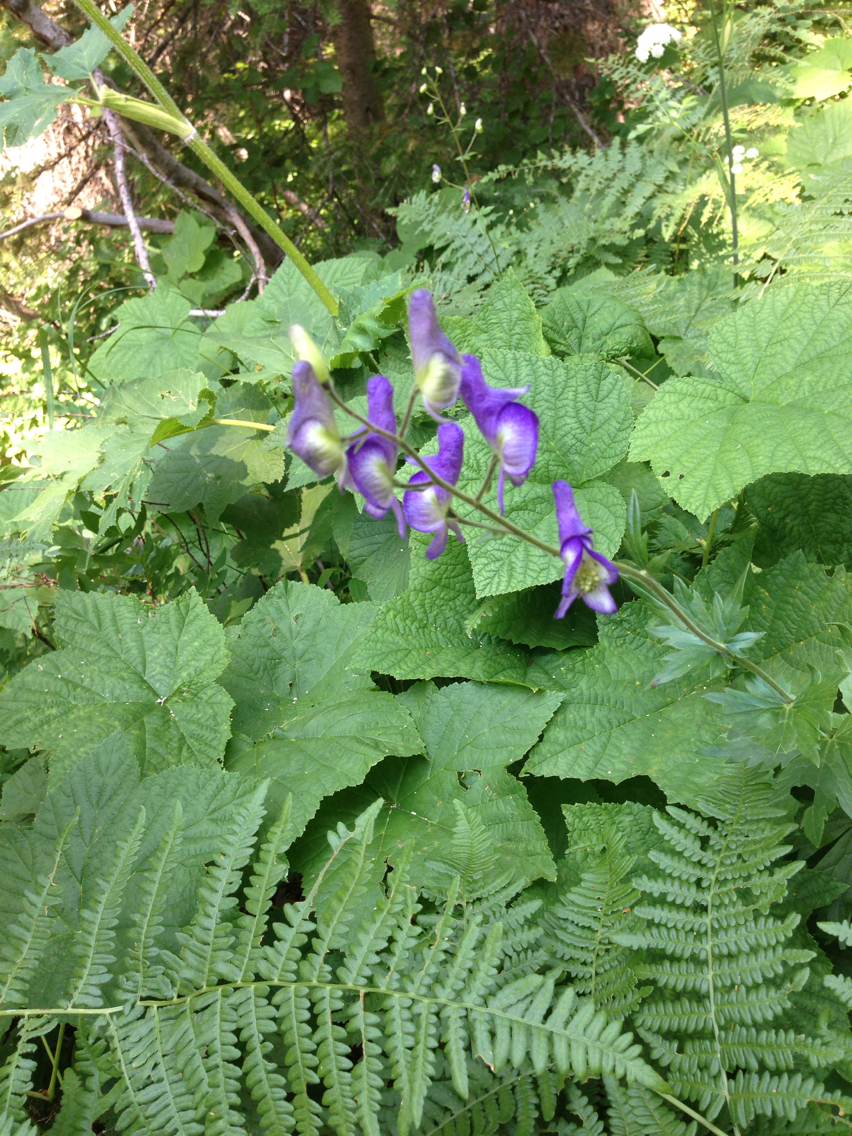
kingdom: Plantae
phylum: Tracheophyta
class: Magnoliopsida
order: Ranunculales
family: Ranunculaceae
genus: Aconitum
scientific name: Aconitum columbianum
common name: Columbia aconite
